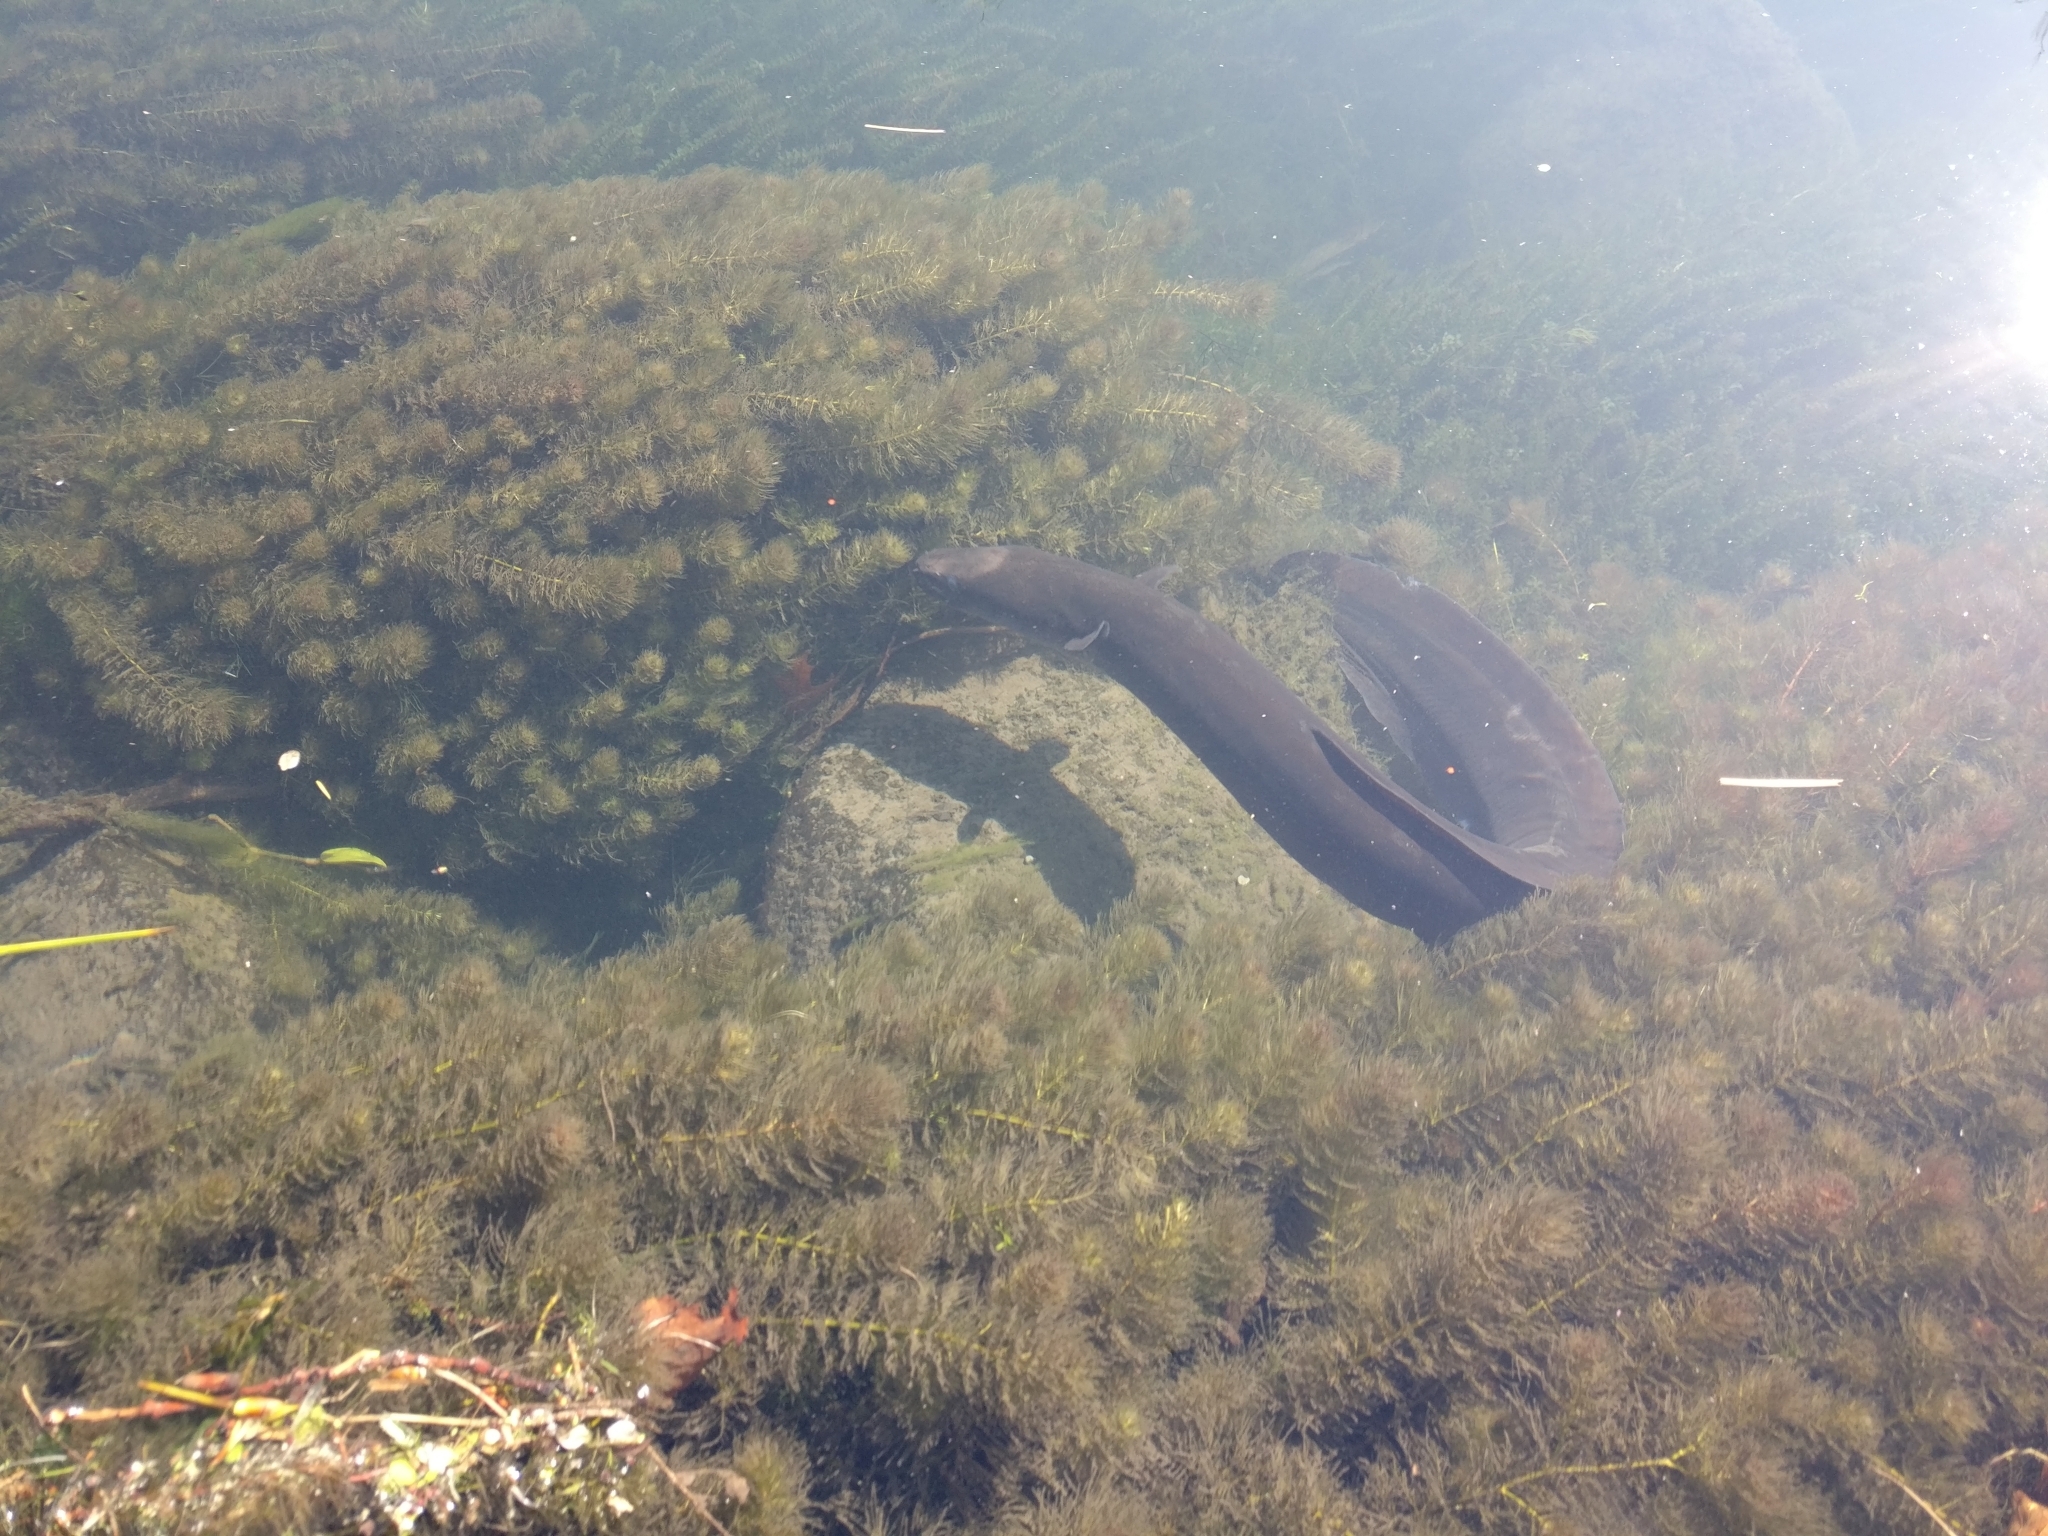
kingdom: Animalia
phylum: Chordata
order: Anguilliformes
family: Anguillidae
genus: Anguilla
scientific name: Anguilla dieffenbachii
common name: New zealand longfin eel
